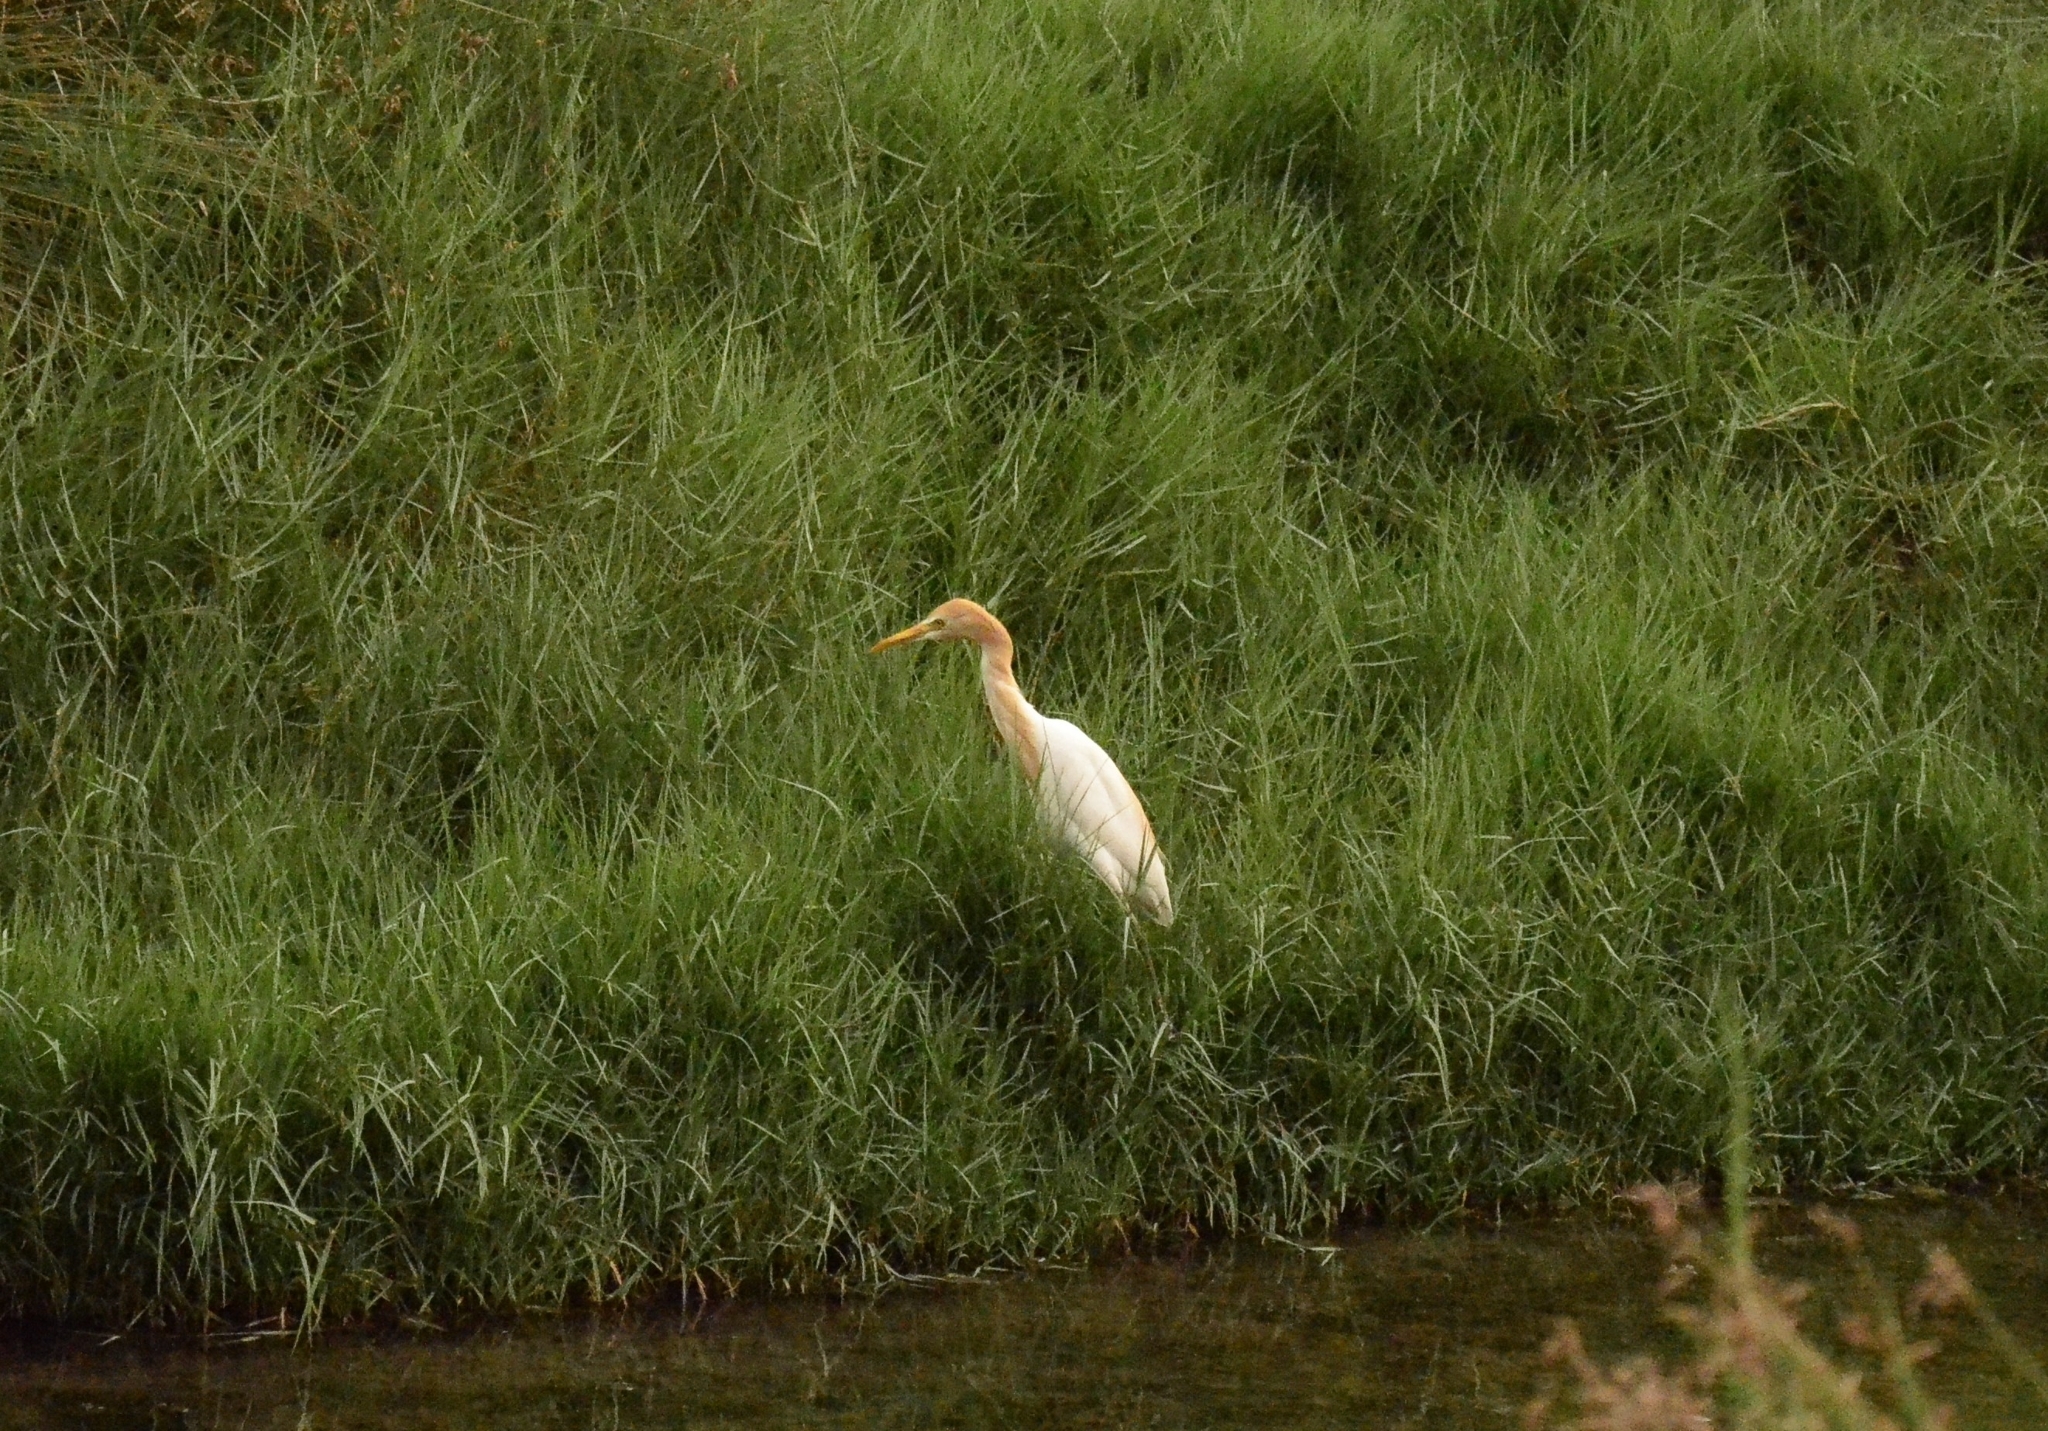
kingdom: Animalia
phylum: Chordata
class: Aves
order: Pelecaniformes
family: Ardeidae
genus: Bubulcus
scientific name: Bubulcus coromandus
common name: Eastern cattle egret
